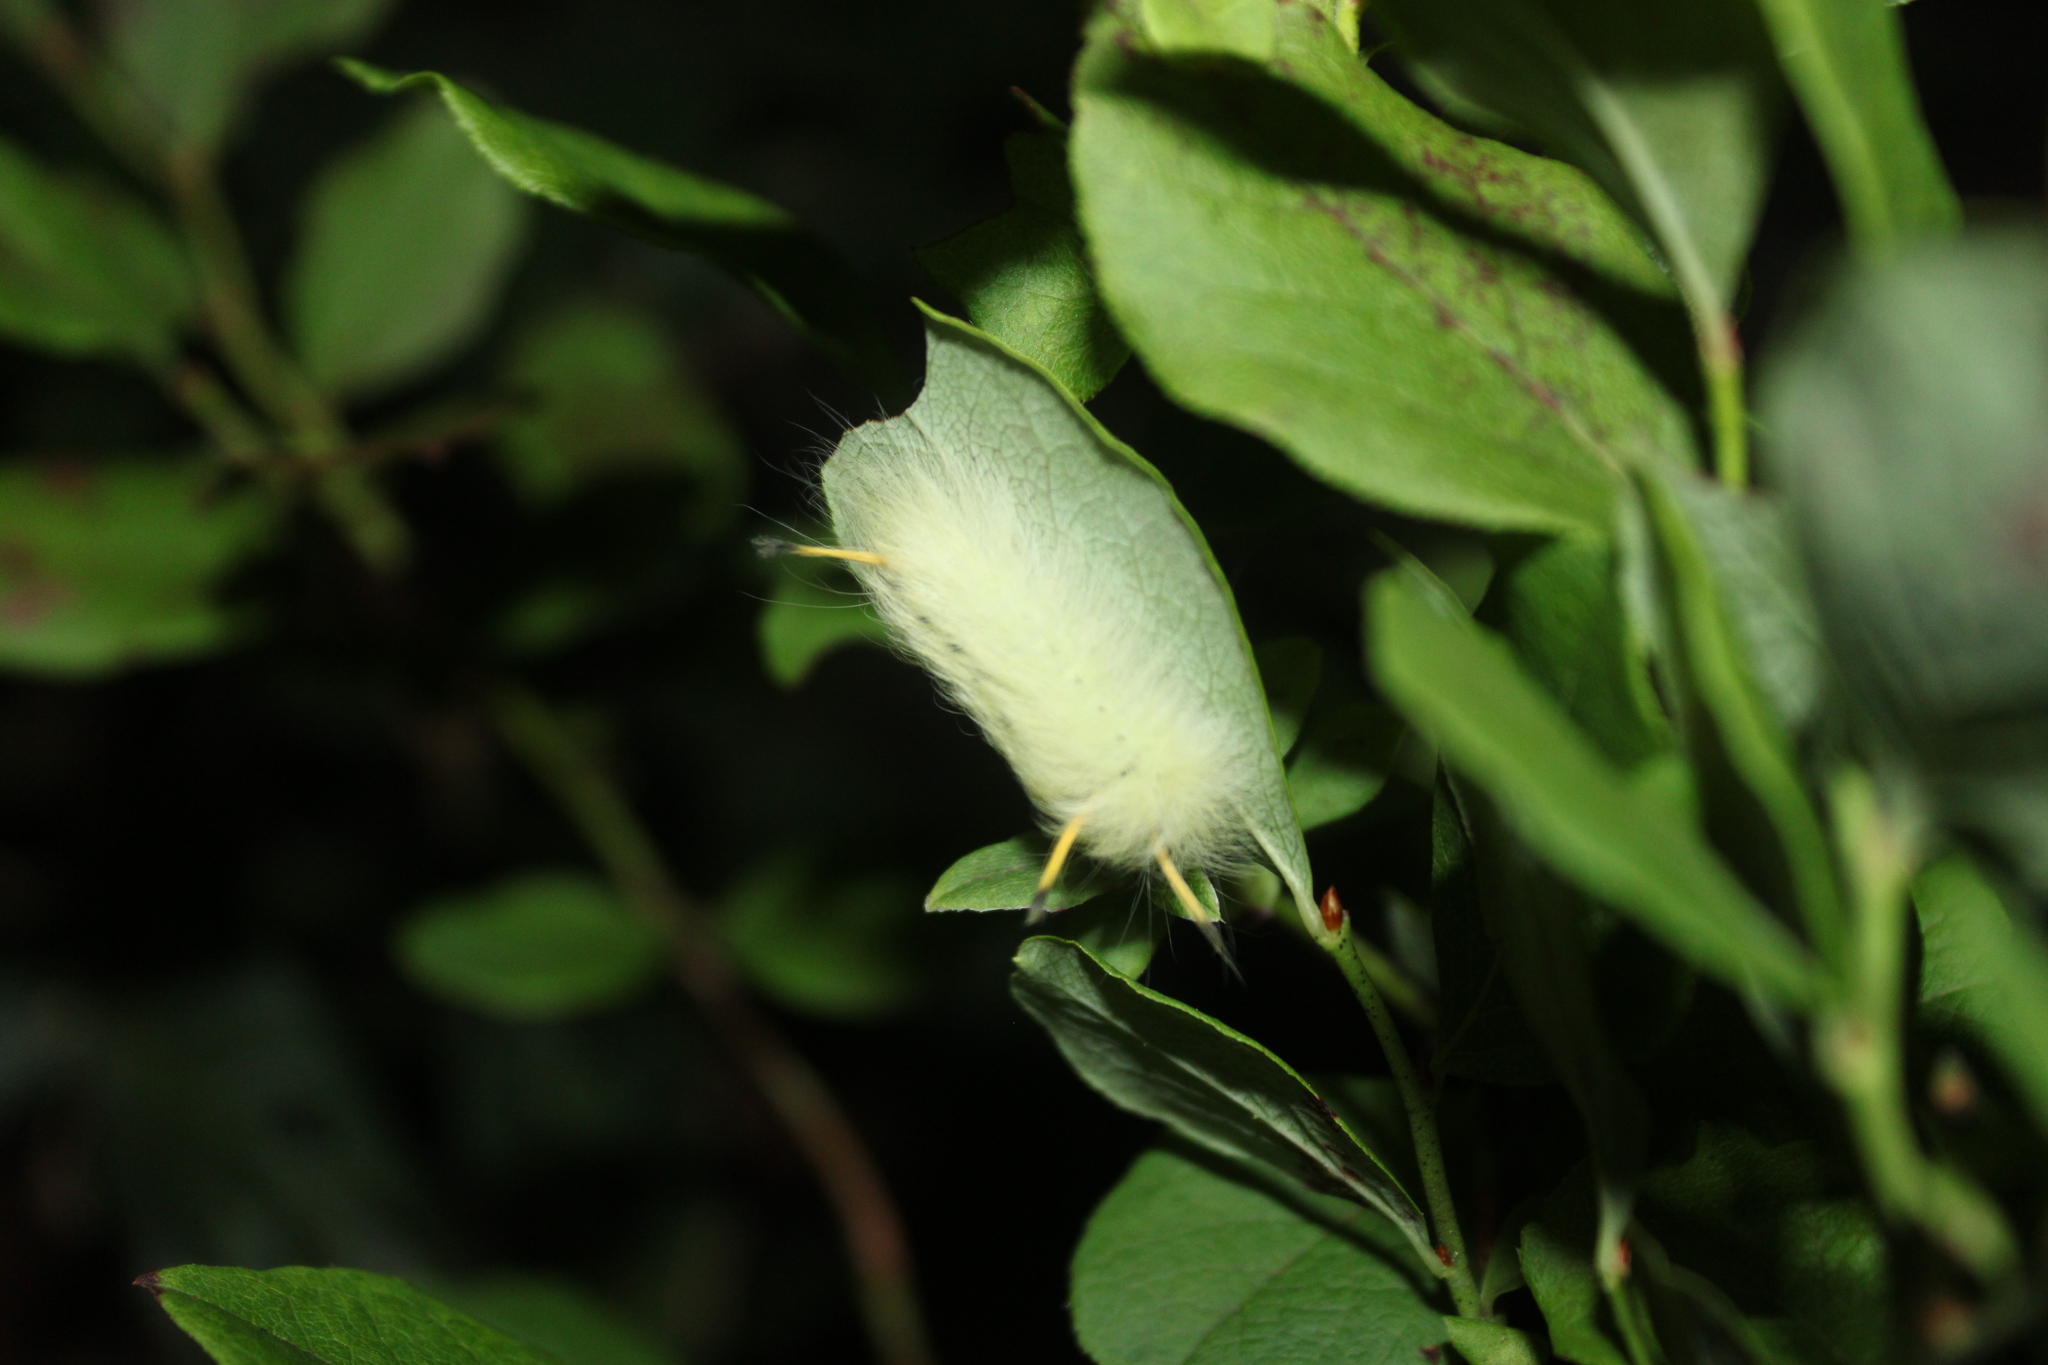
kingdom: Animalia
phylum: Arthropoda
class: Insecta
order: Lepidoptera
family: Apatelodidae
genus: Hygrochroa
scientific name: Hygrochroa Apatelodes torrefacta
